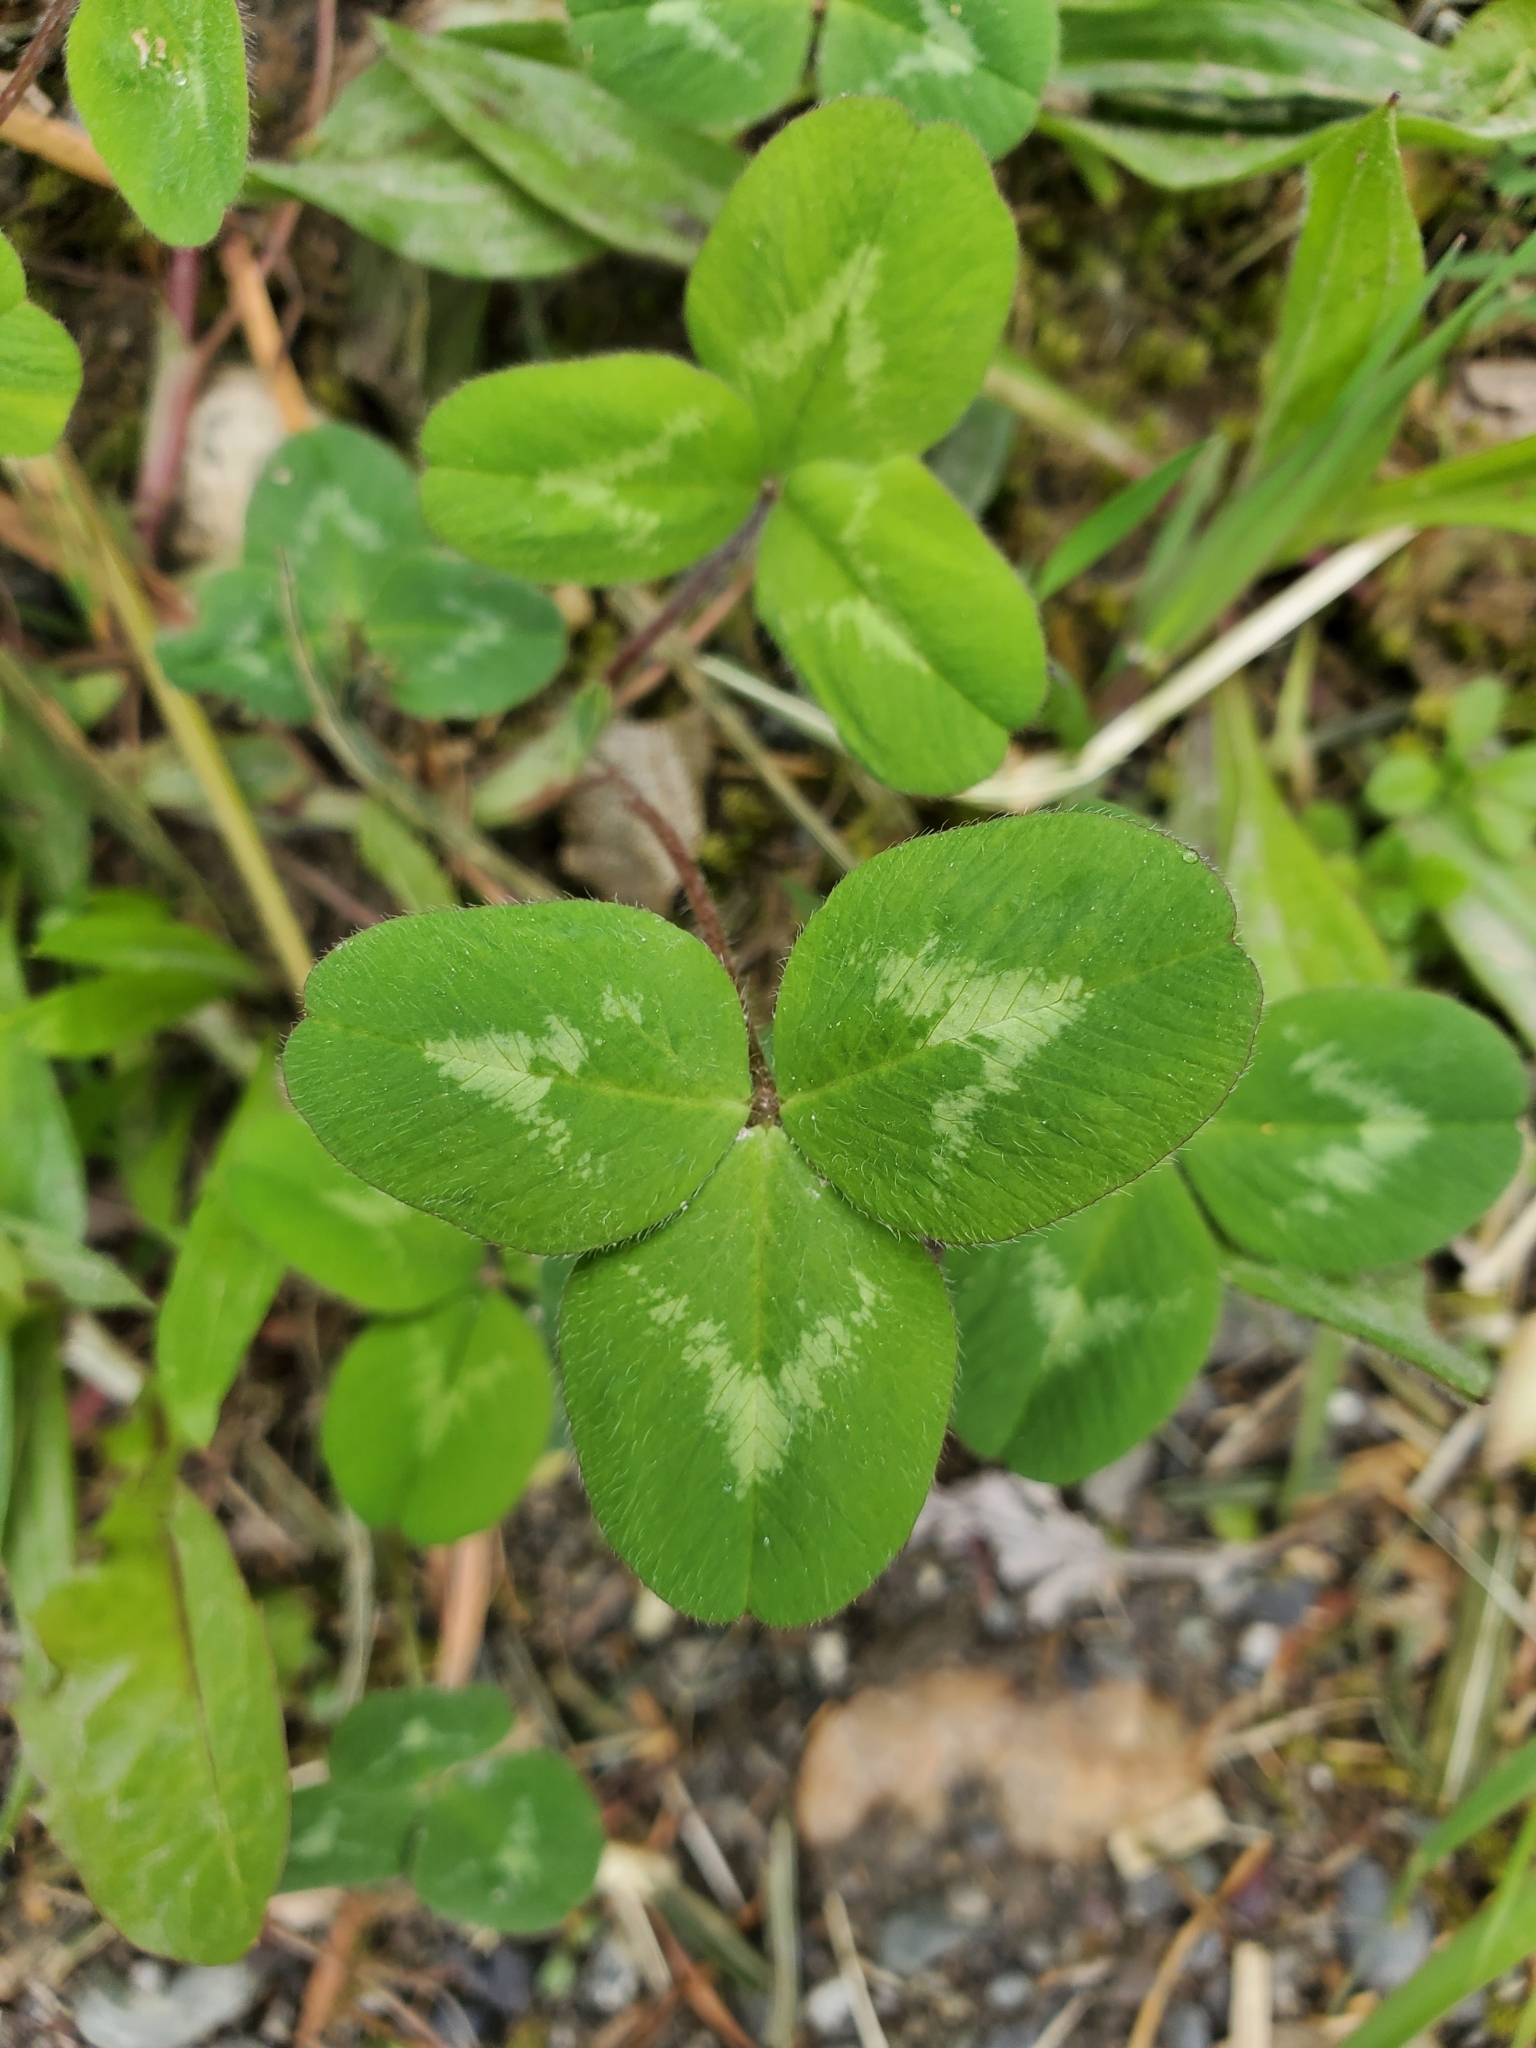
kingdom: Plantae
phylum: Tracheophyta
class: Magnoliopsida
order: Fabales
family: Fabaceae
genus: Trifolium
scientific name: Trifolium pratense
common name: Red clover
